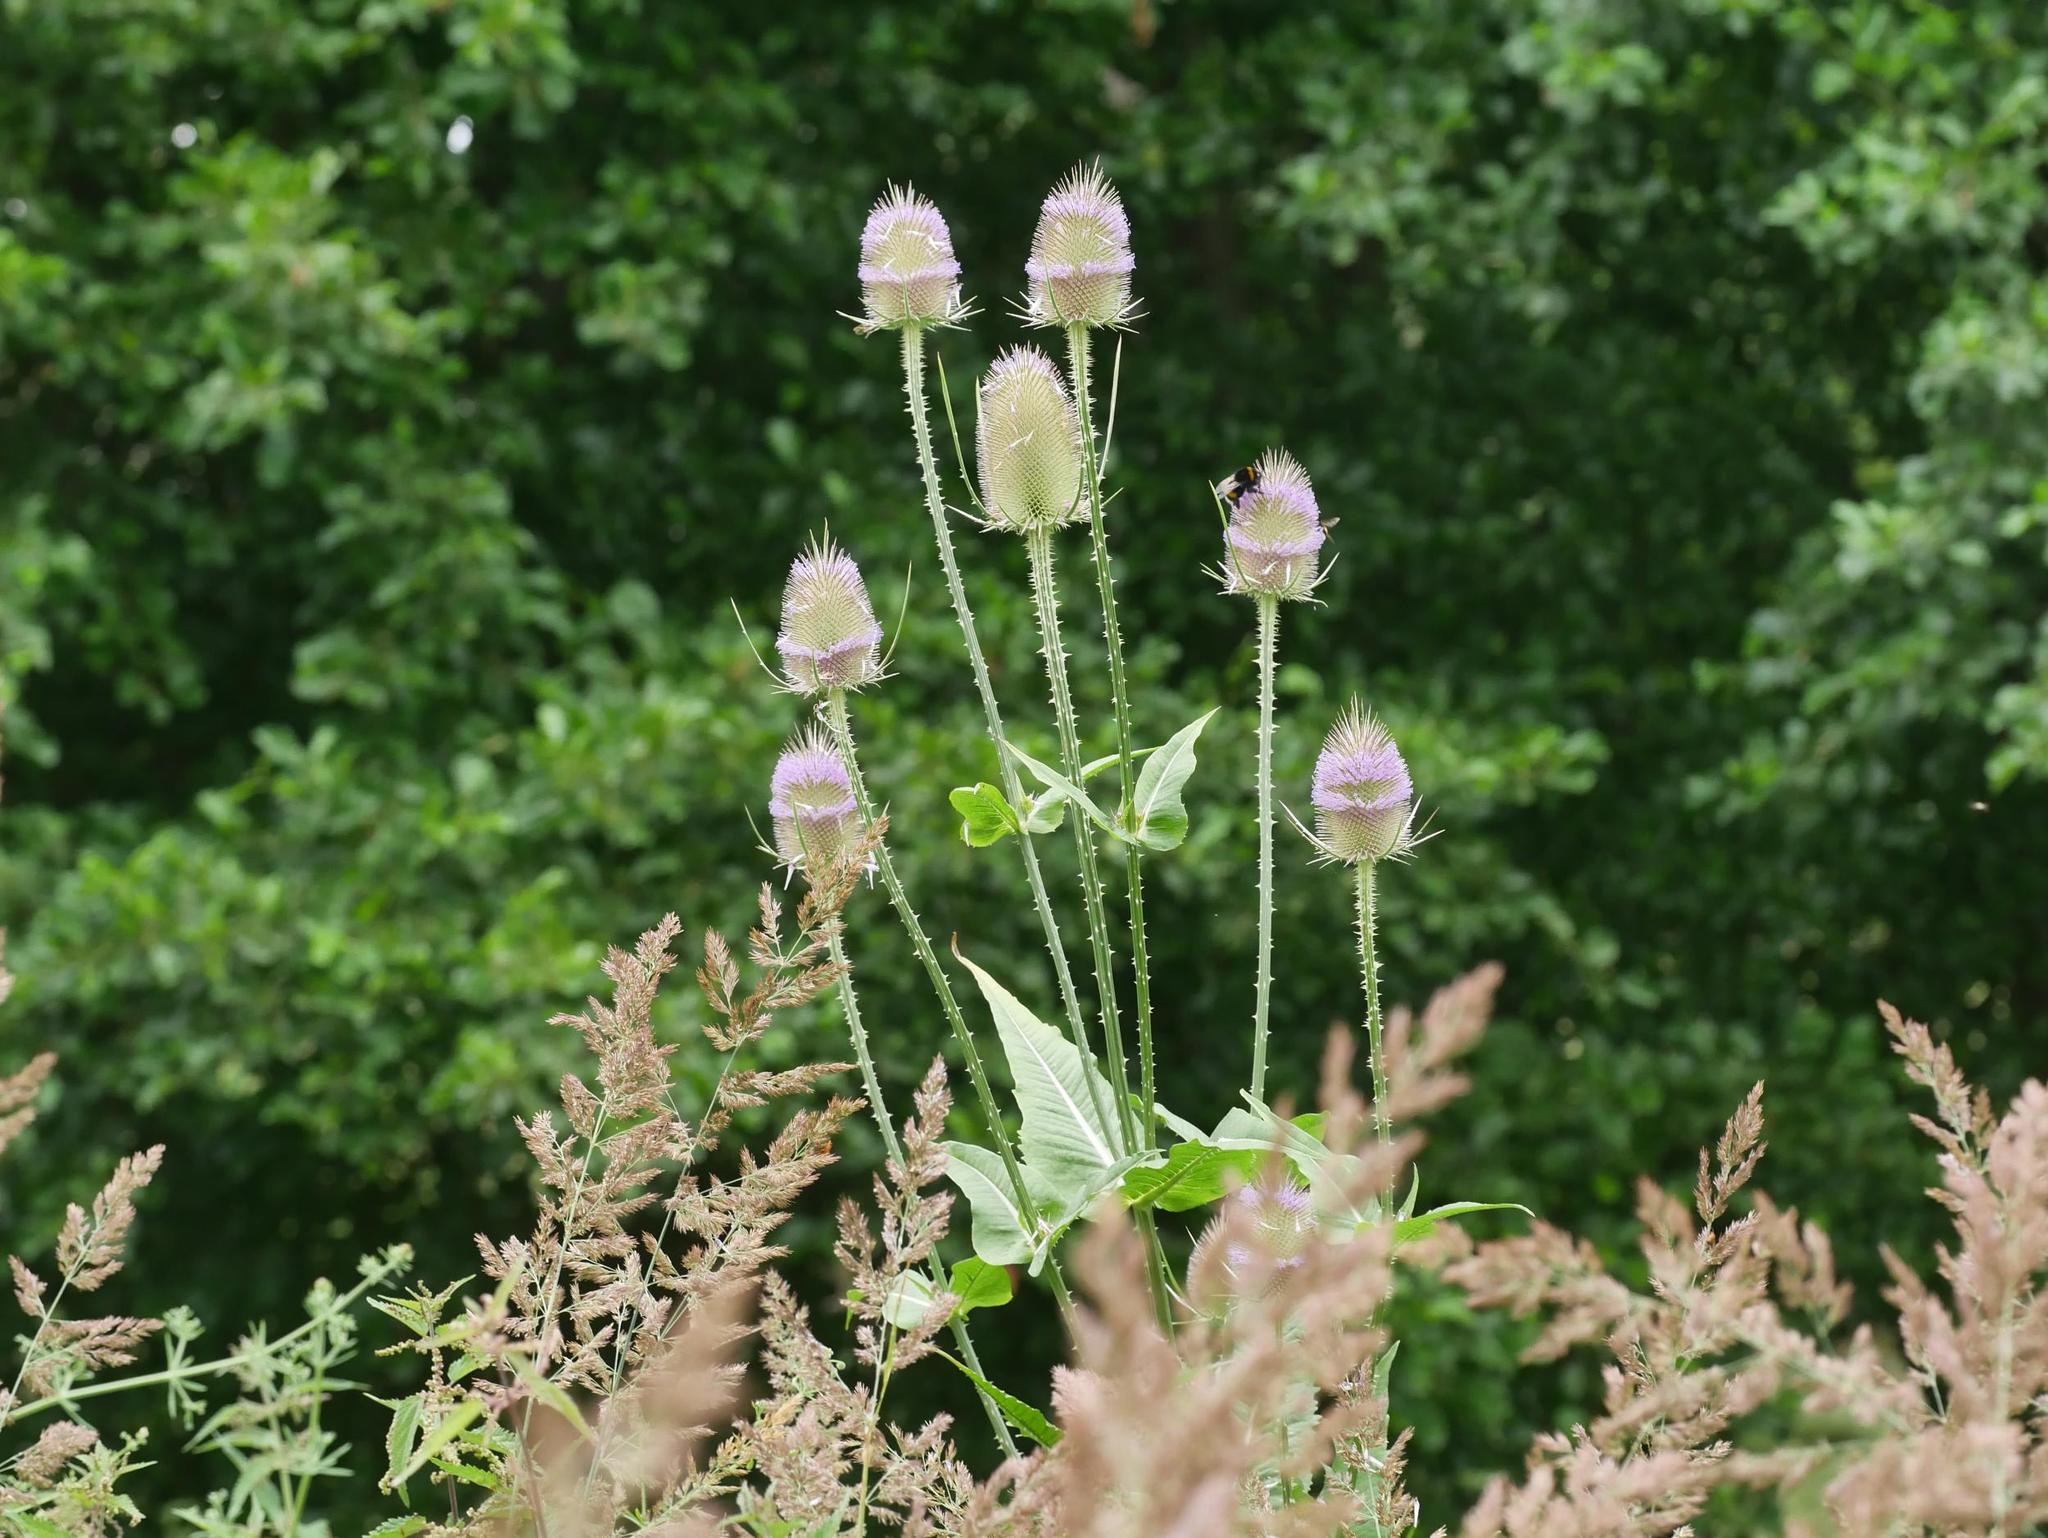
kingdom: Plantae
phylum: Tracheophyta
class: Magnoliopsida
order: Dipsacales
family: Caprifoliaceae
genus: Dipsacus
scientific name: Dipsacus fullonum
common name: Teasel
